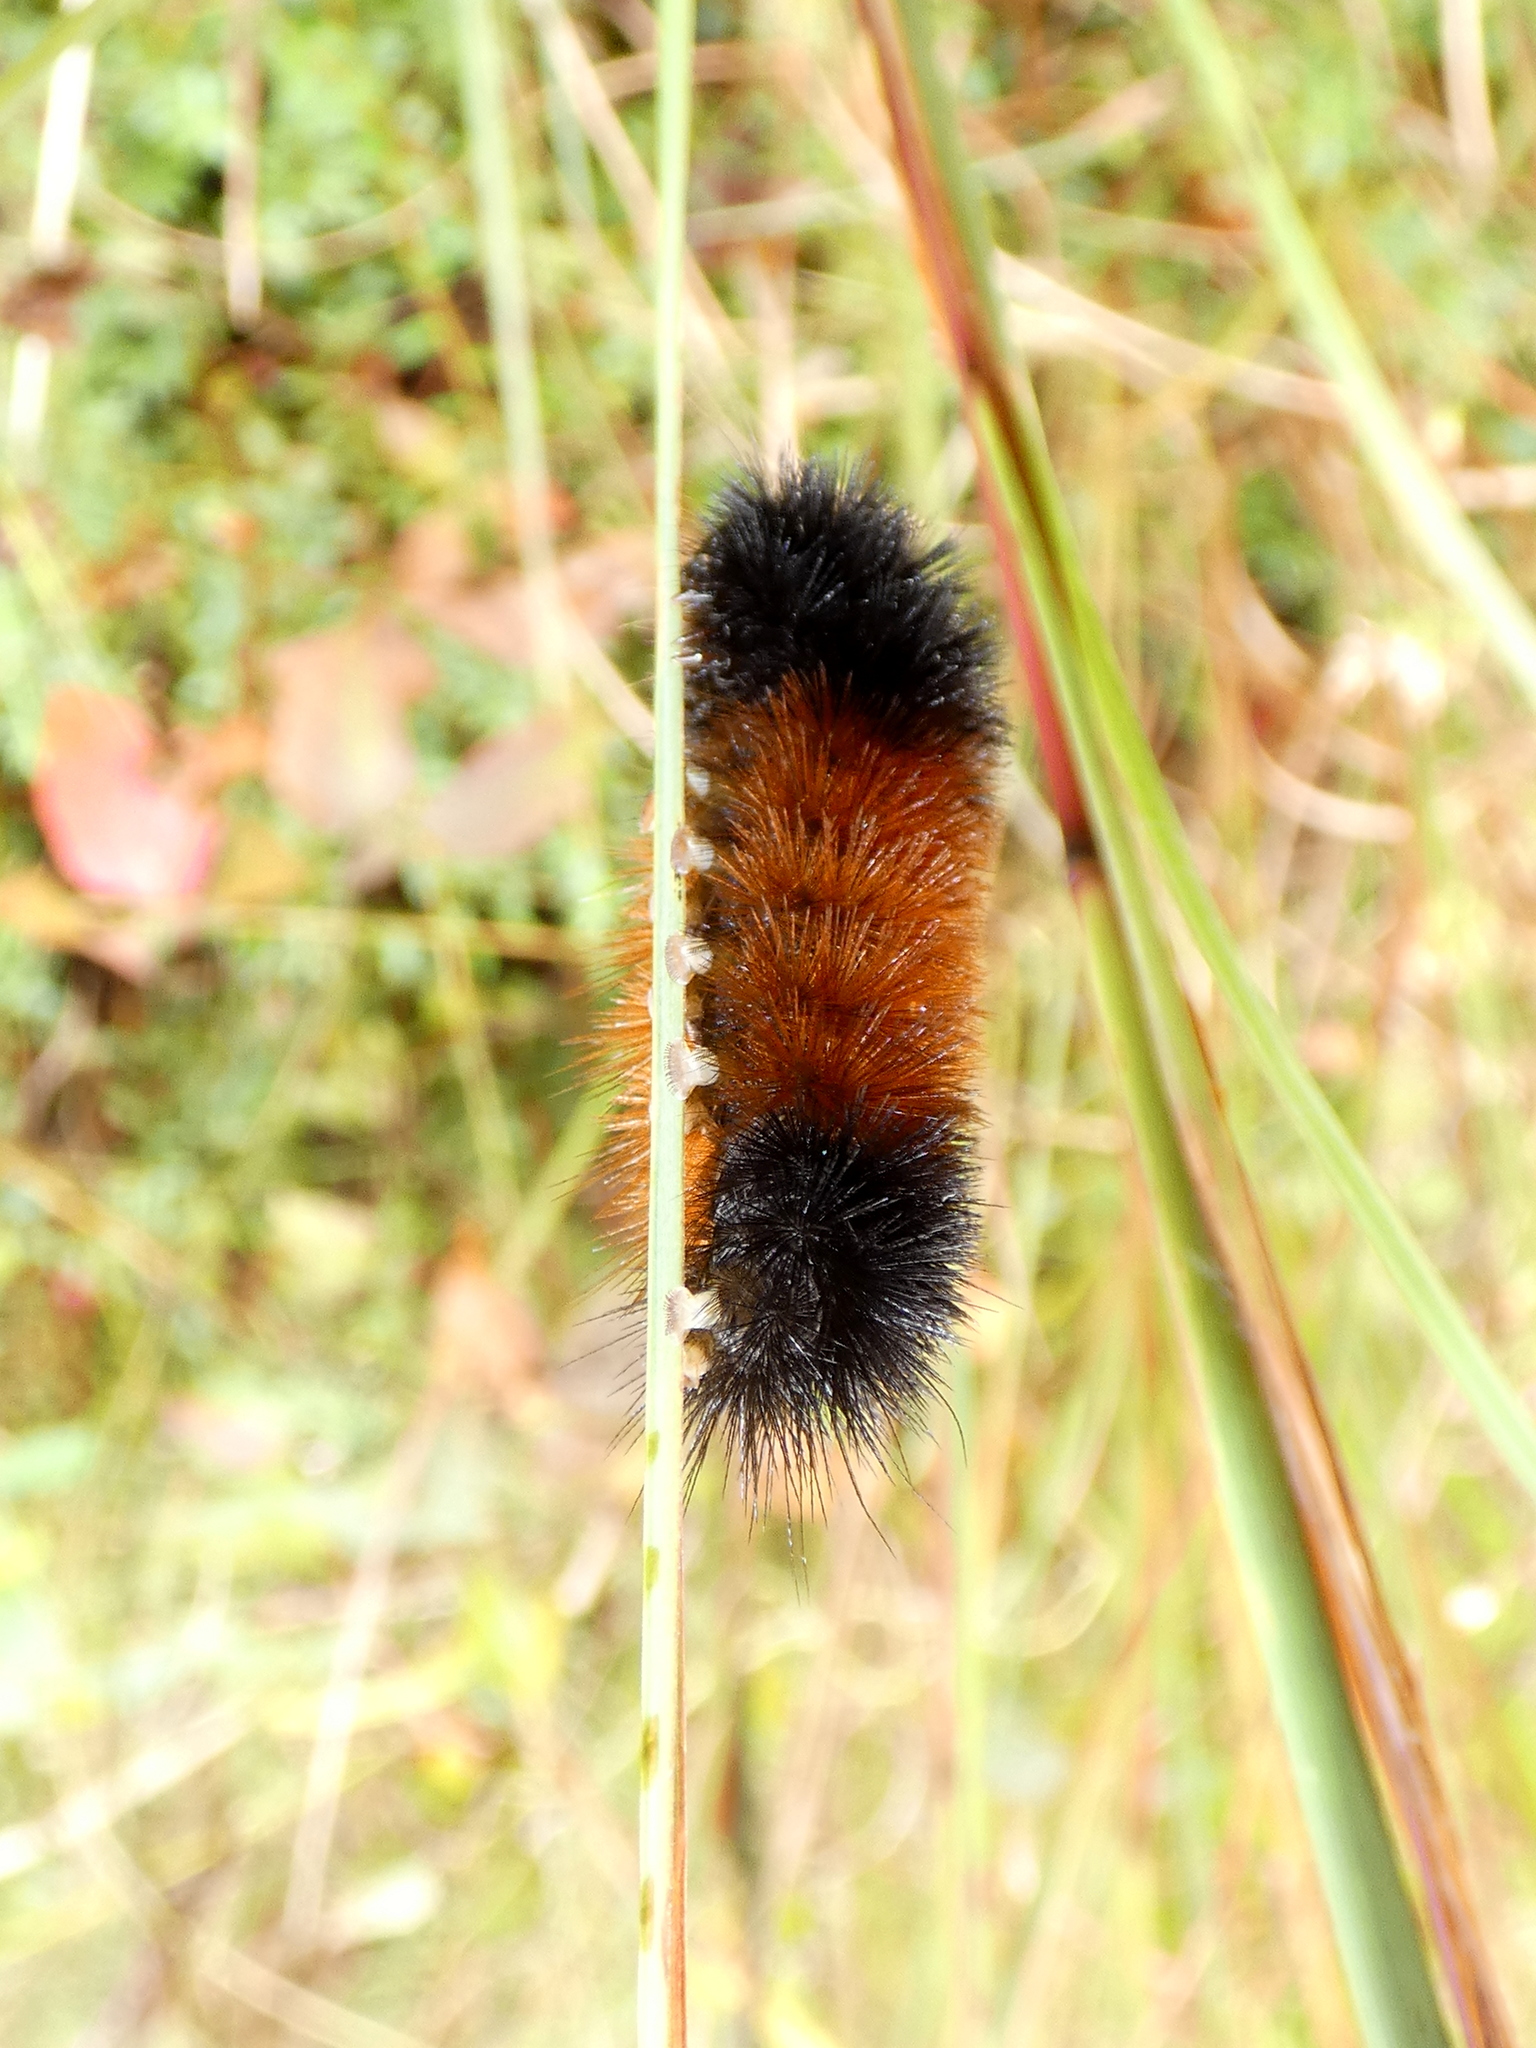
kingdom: Animalia
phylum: Arthropoda
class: Insecta
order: Lepidoptera
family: Erebidae
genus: Pyrrharctia
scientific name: Pyrrharctia isabella
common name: Isabella tiger moth
